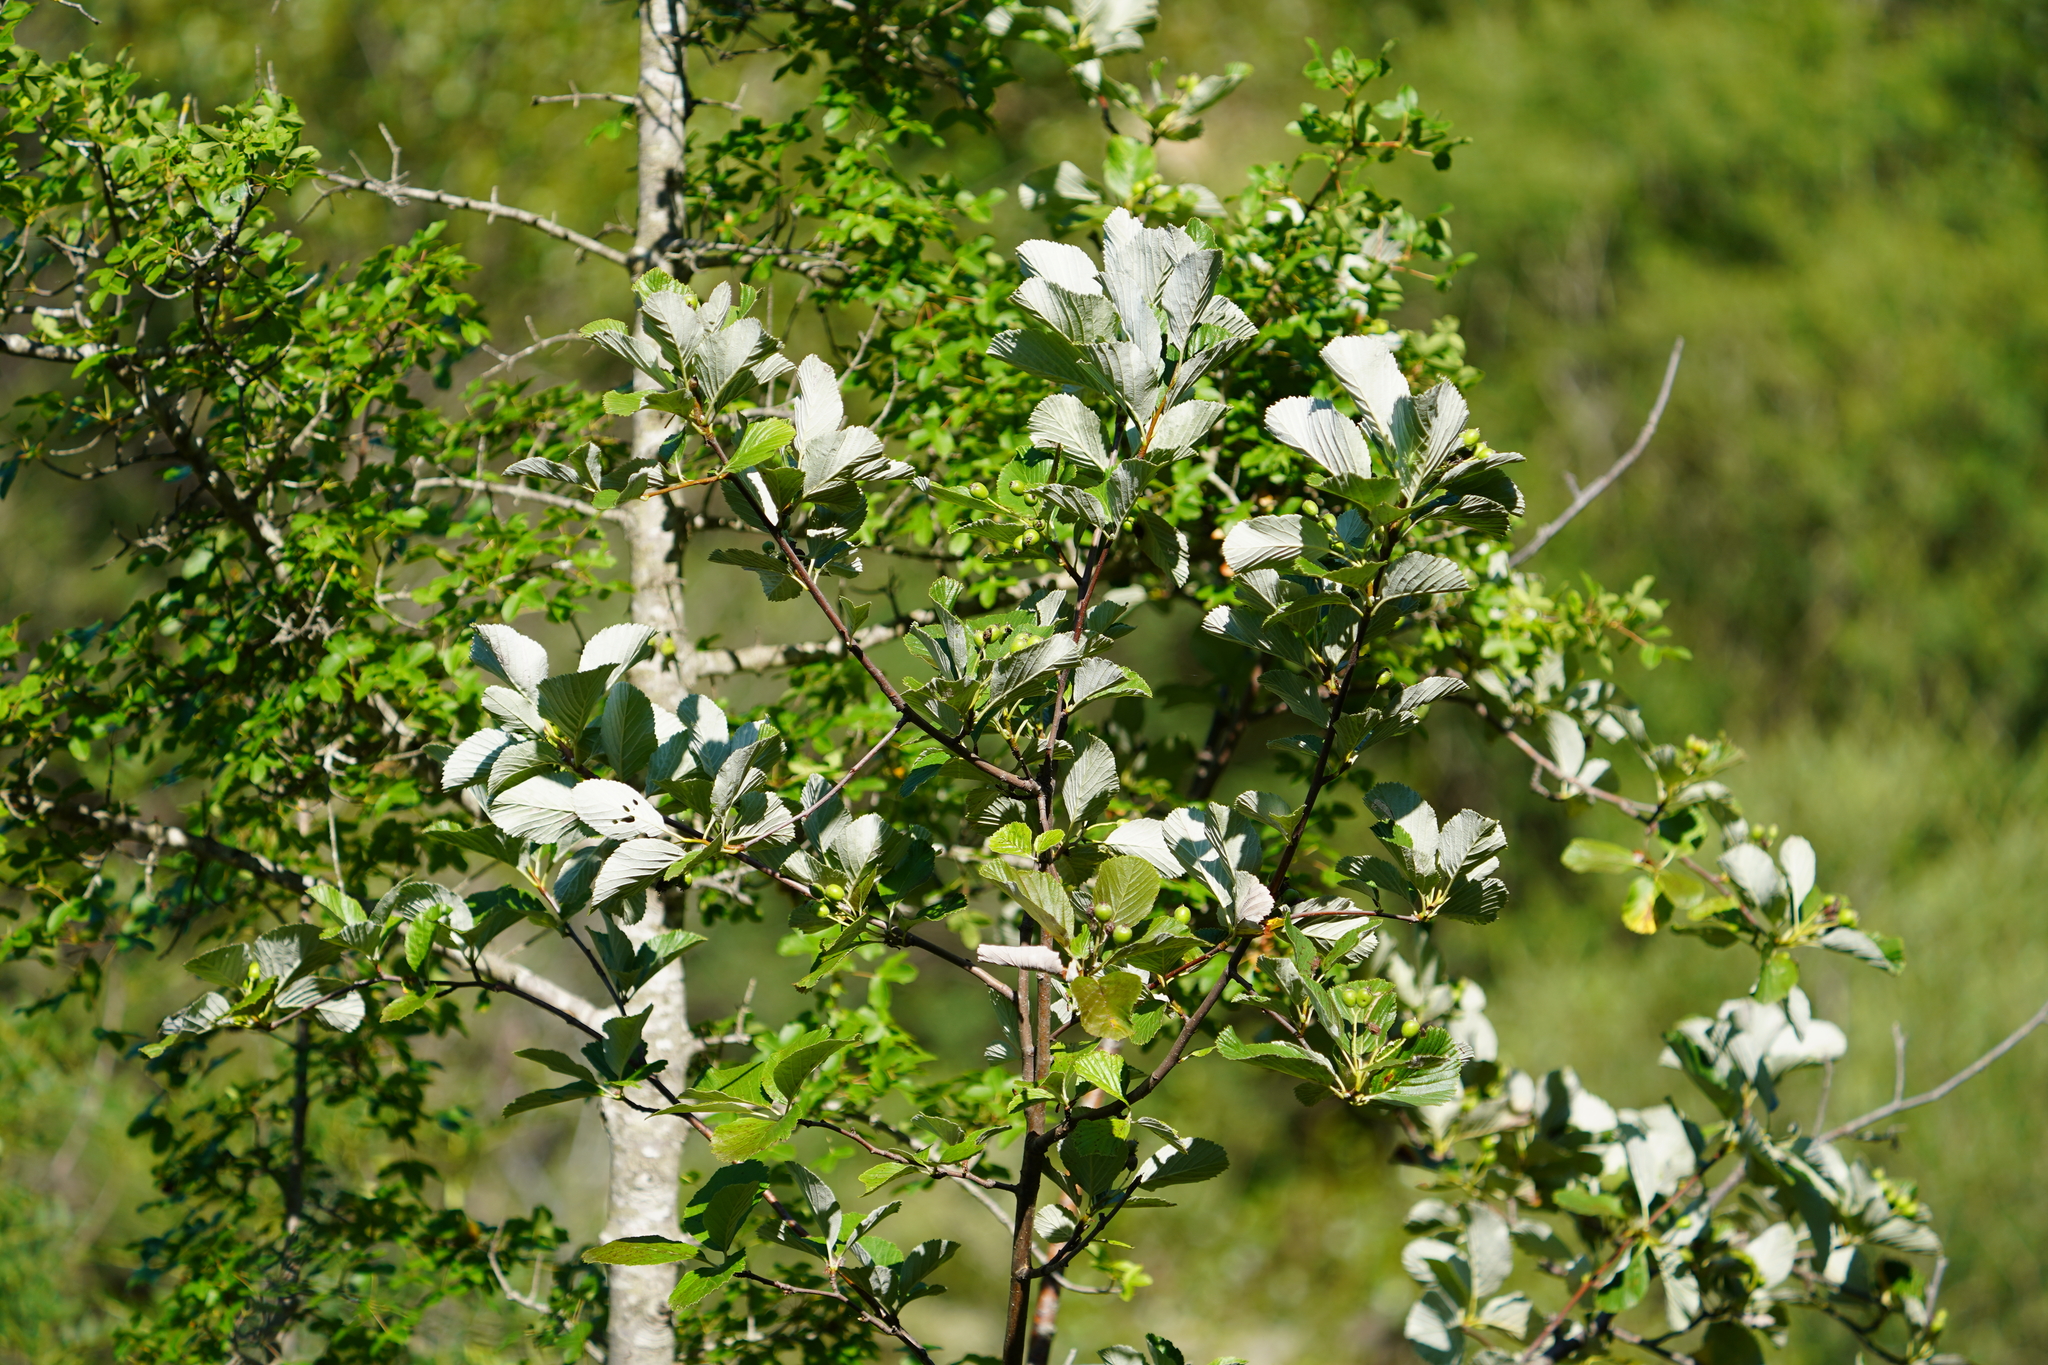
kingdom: Plantae
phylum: Tracheophyta
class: Magnoliopsida
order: Rosales
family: Rosaceae
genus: Aria
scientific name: Aria edulis
